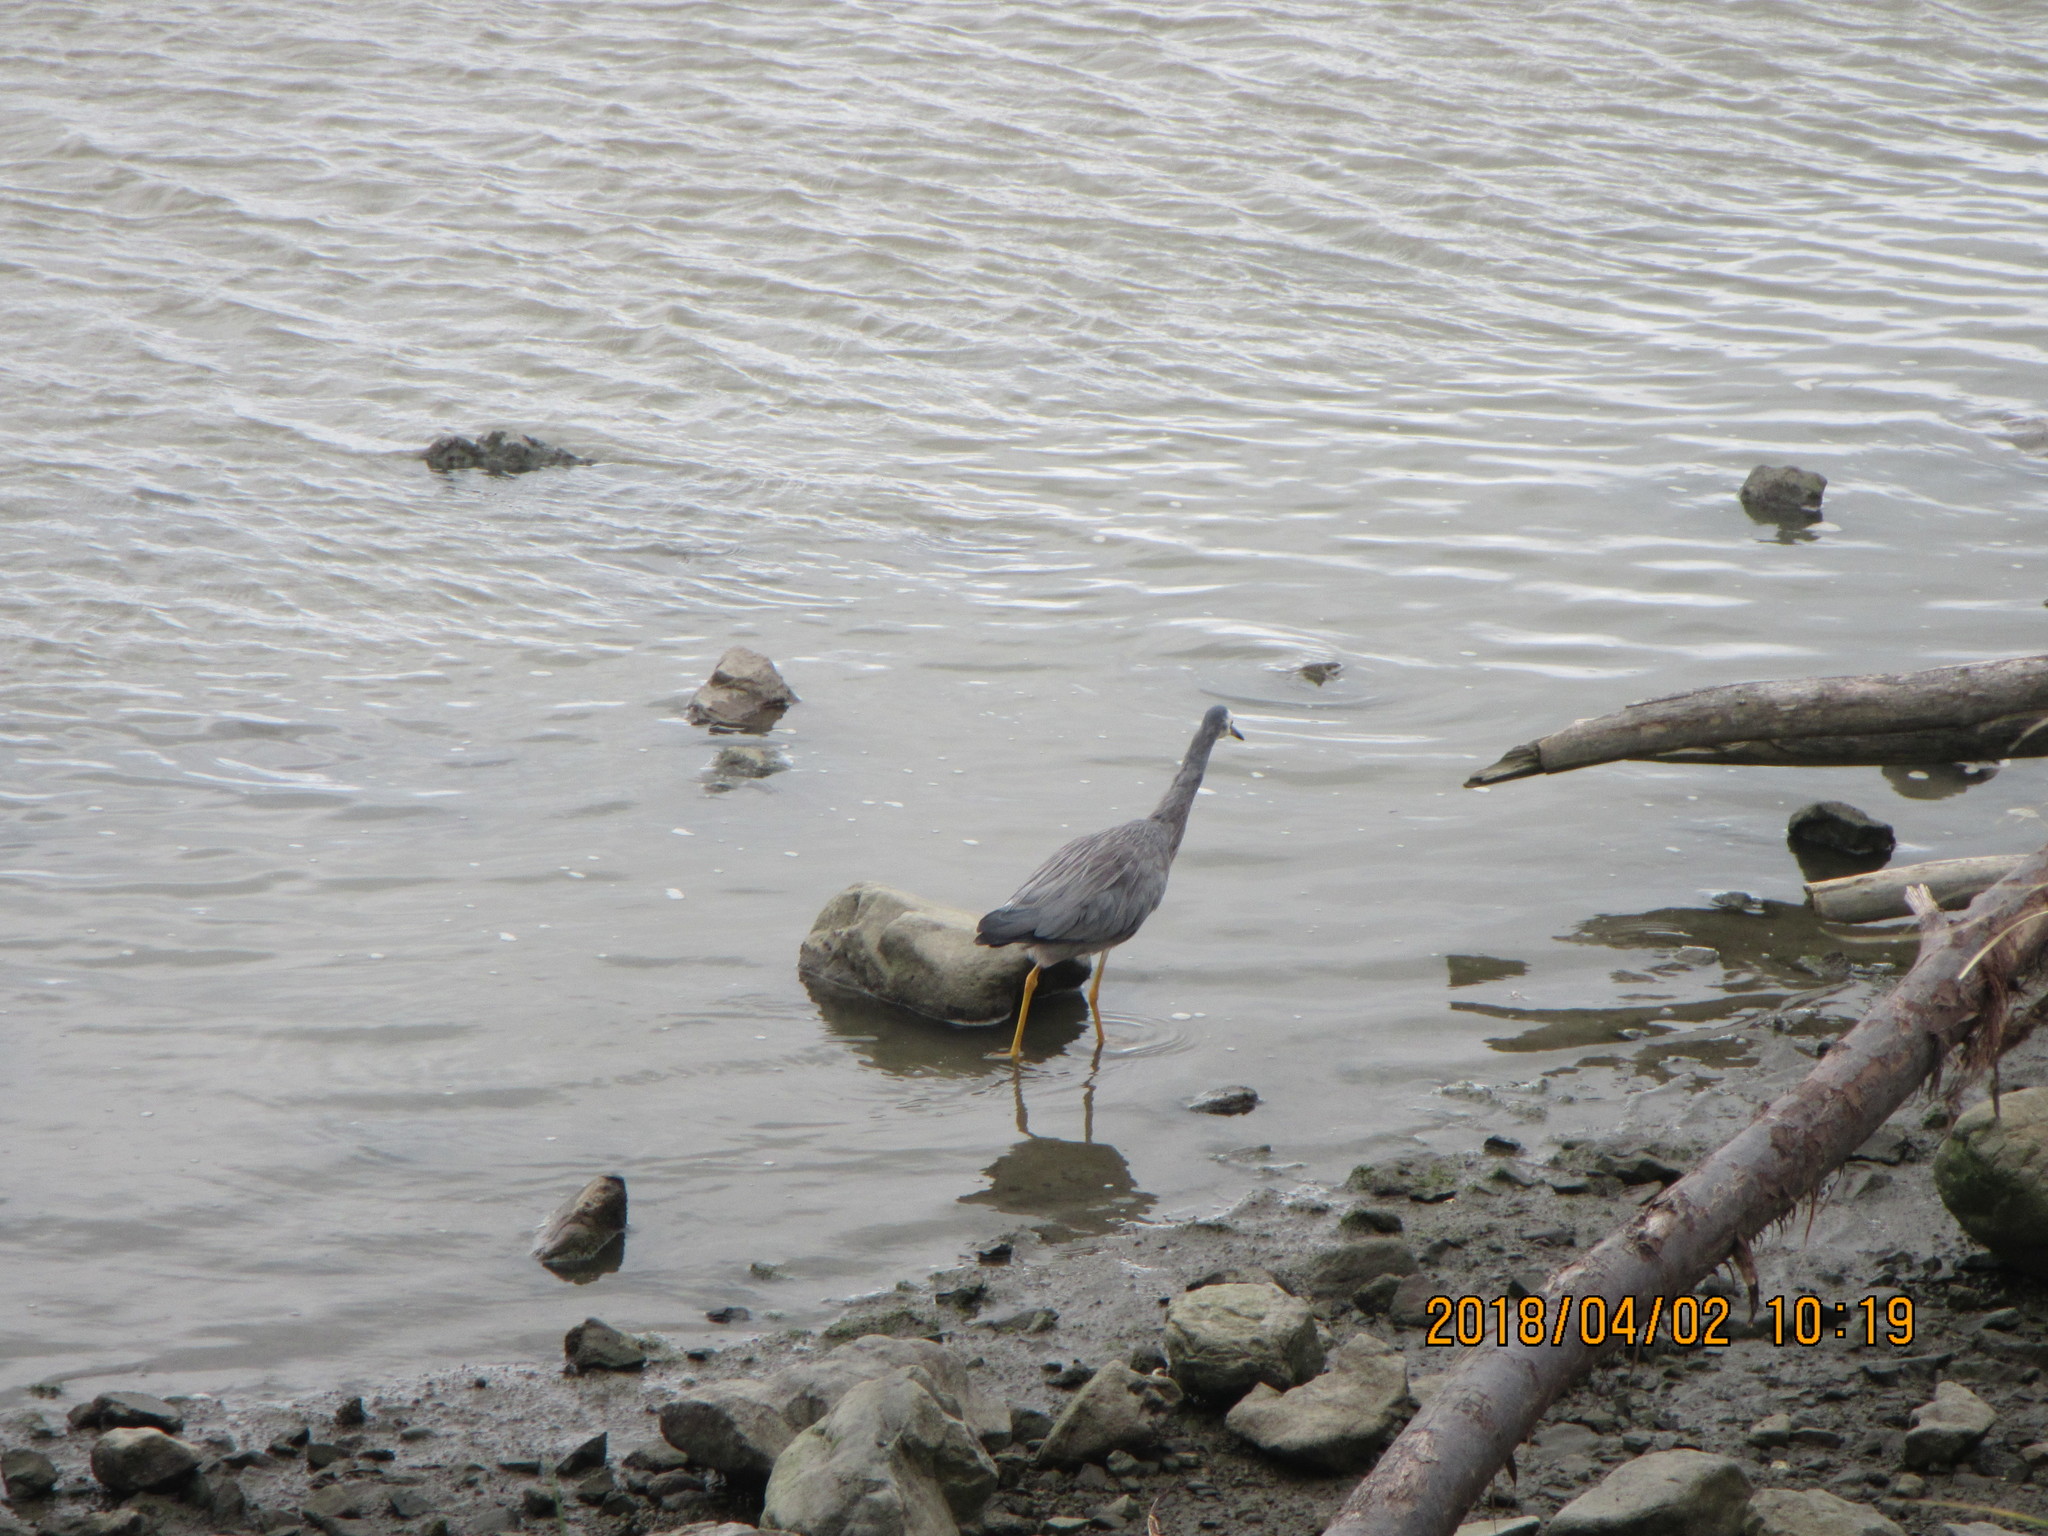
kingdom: Animalia
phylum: Chordata
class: Aves
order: Pelecaniformes
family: Ardeidae
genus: Egretta
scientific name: Egretta novaehollandiae
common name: White-faced heron
